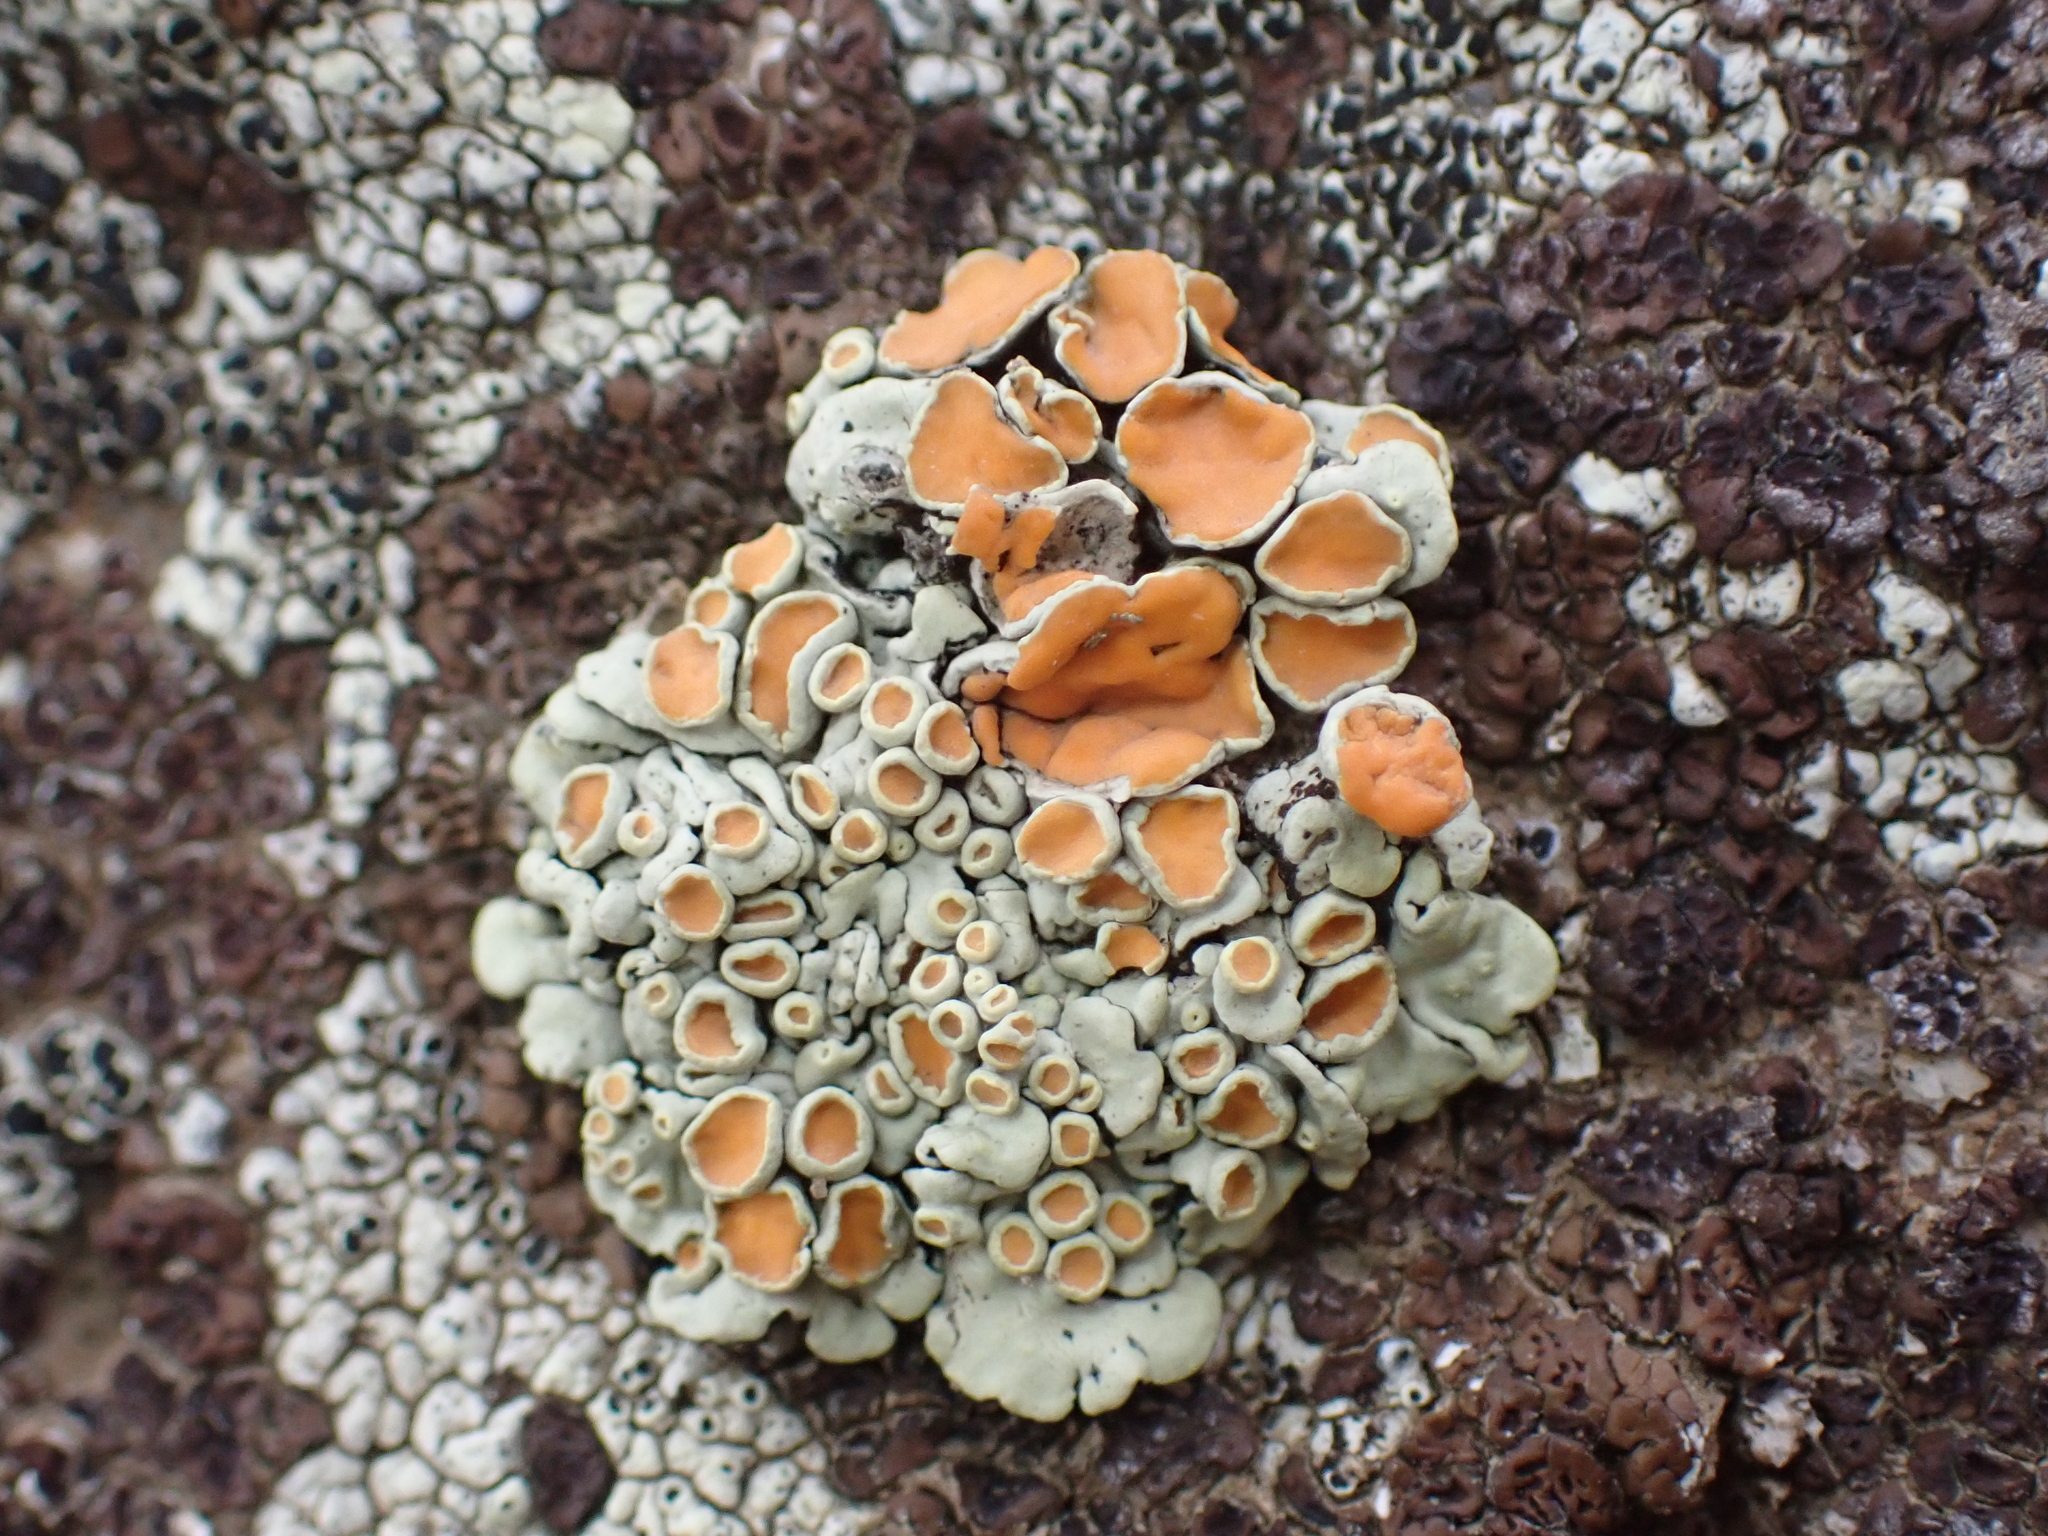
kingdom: Fungi
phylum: Ascomycota
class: Lecanoromycetes
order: Lecanorales
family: Lecanoraceae
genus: Omphalodina
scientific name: Omphalodina chrysoleuca
